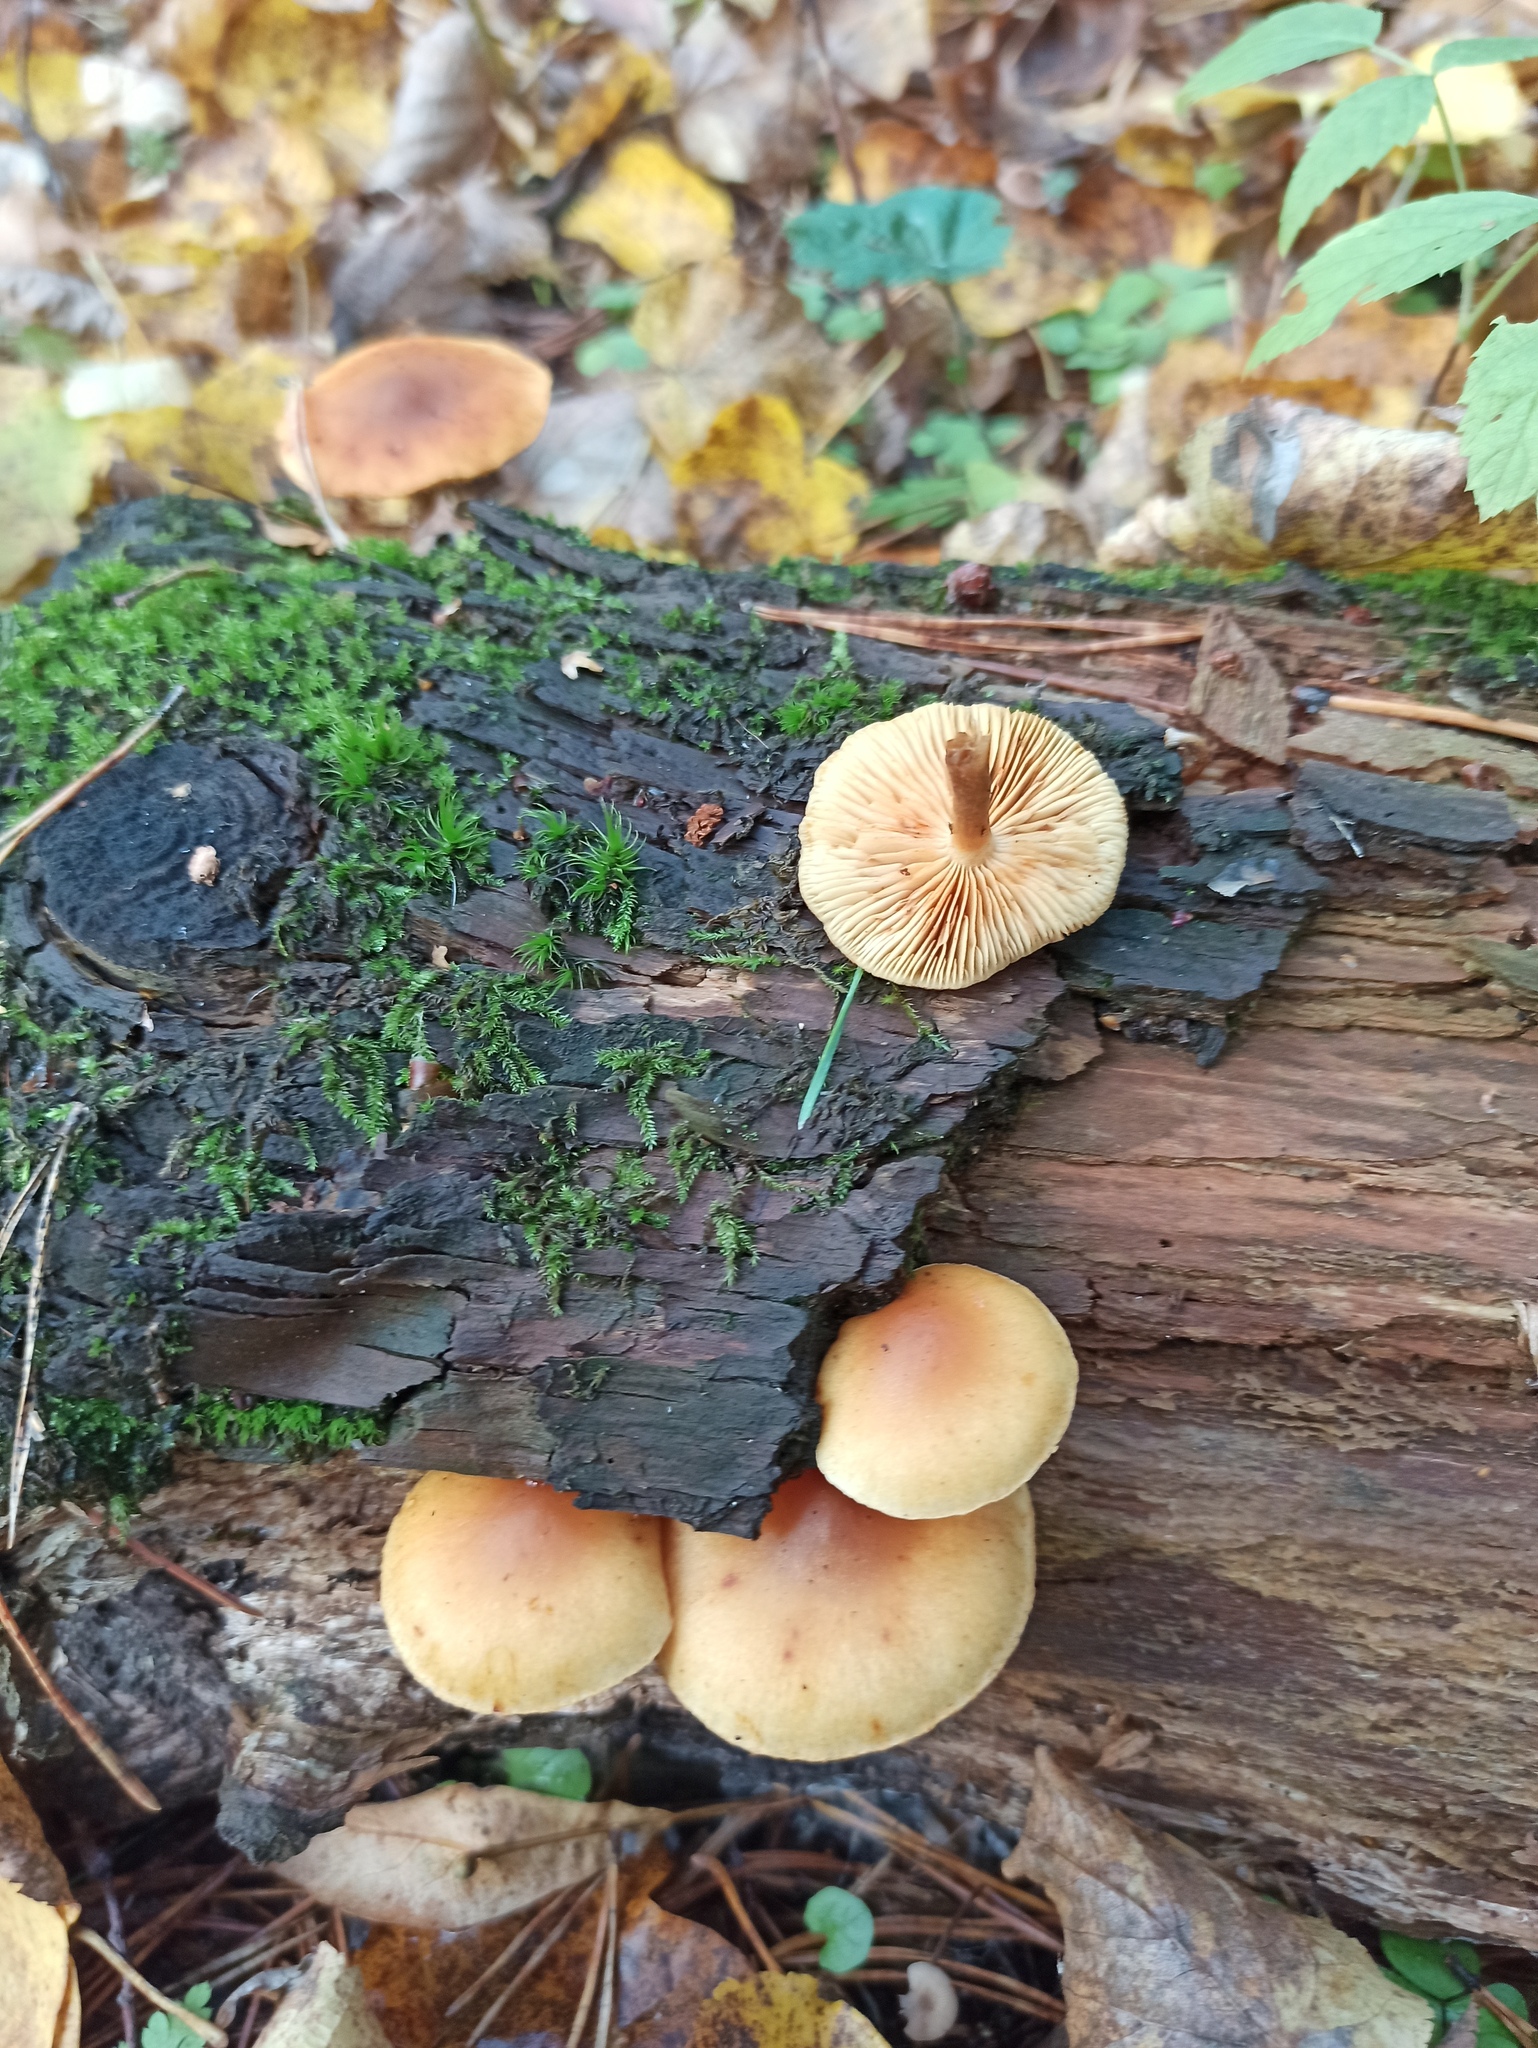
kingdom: Fungi
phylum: Basidiomycota
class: Agaricomycetes
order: Agaricales
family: Hymenogastraceae
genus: Gymnopilus
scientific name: Gymnopilus penetrans
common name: Common rustgill
